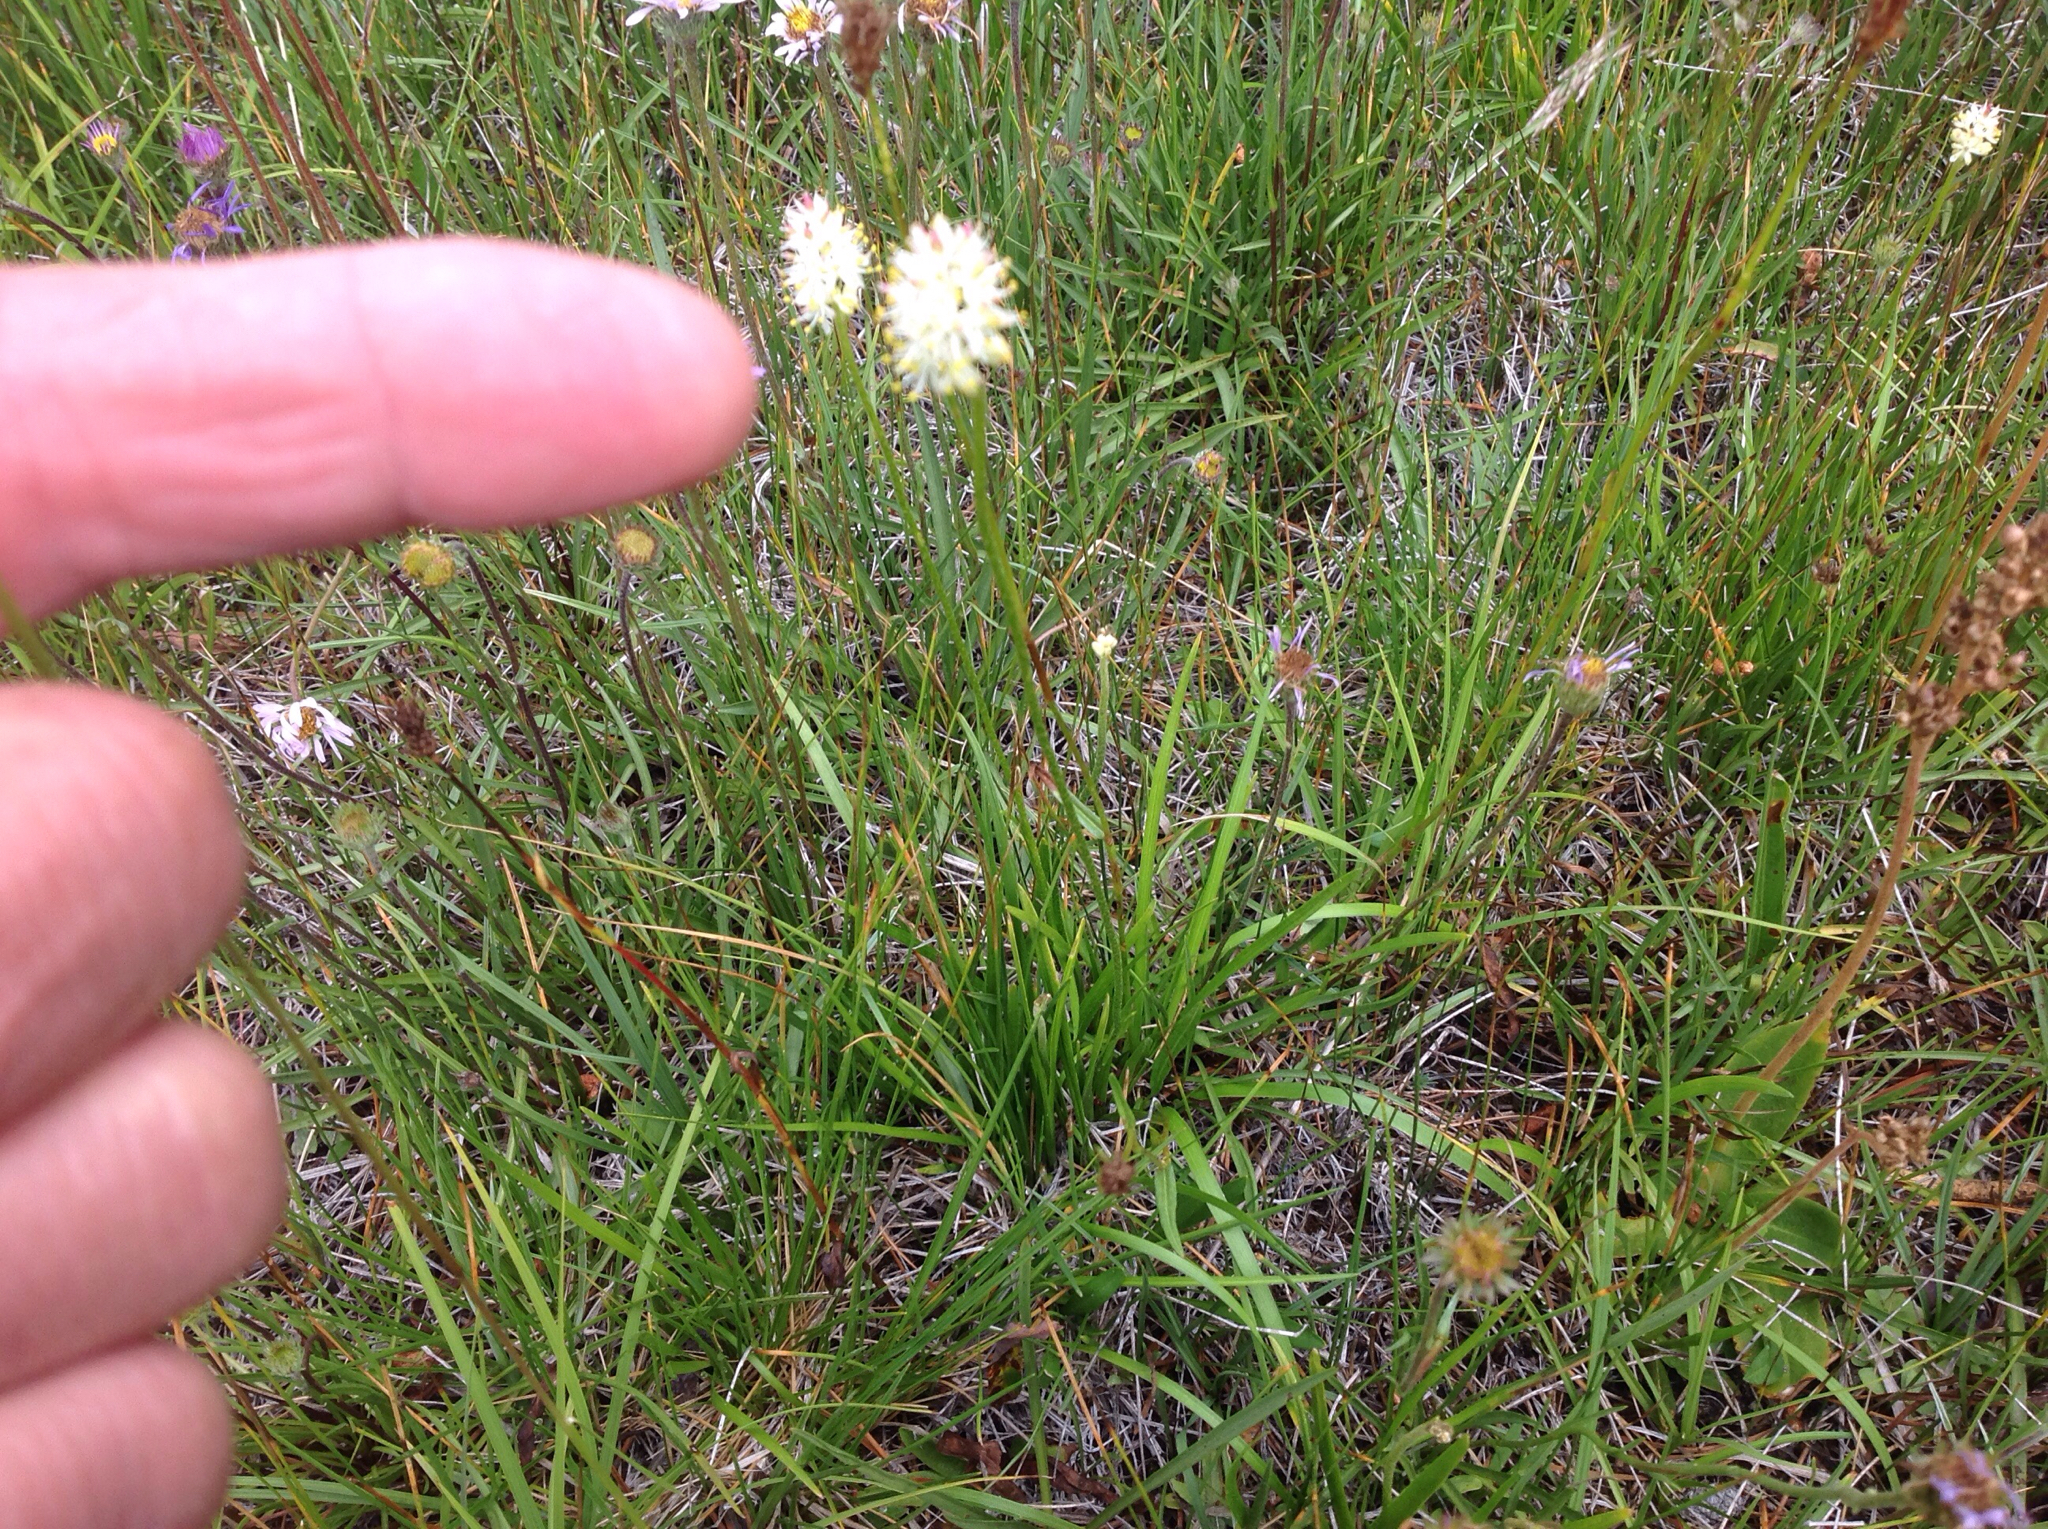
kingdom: Plantae
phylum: Tracheophyta
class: Liliopsida
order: Alismatales
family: Tofieldiaceae
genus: Triantha
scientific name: Triantha occidentalis
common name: Western false asphodel
